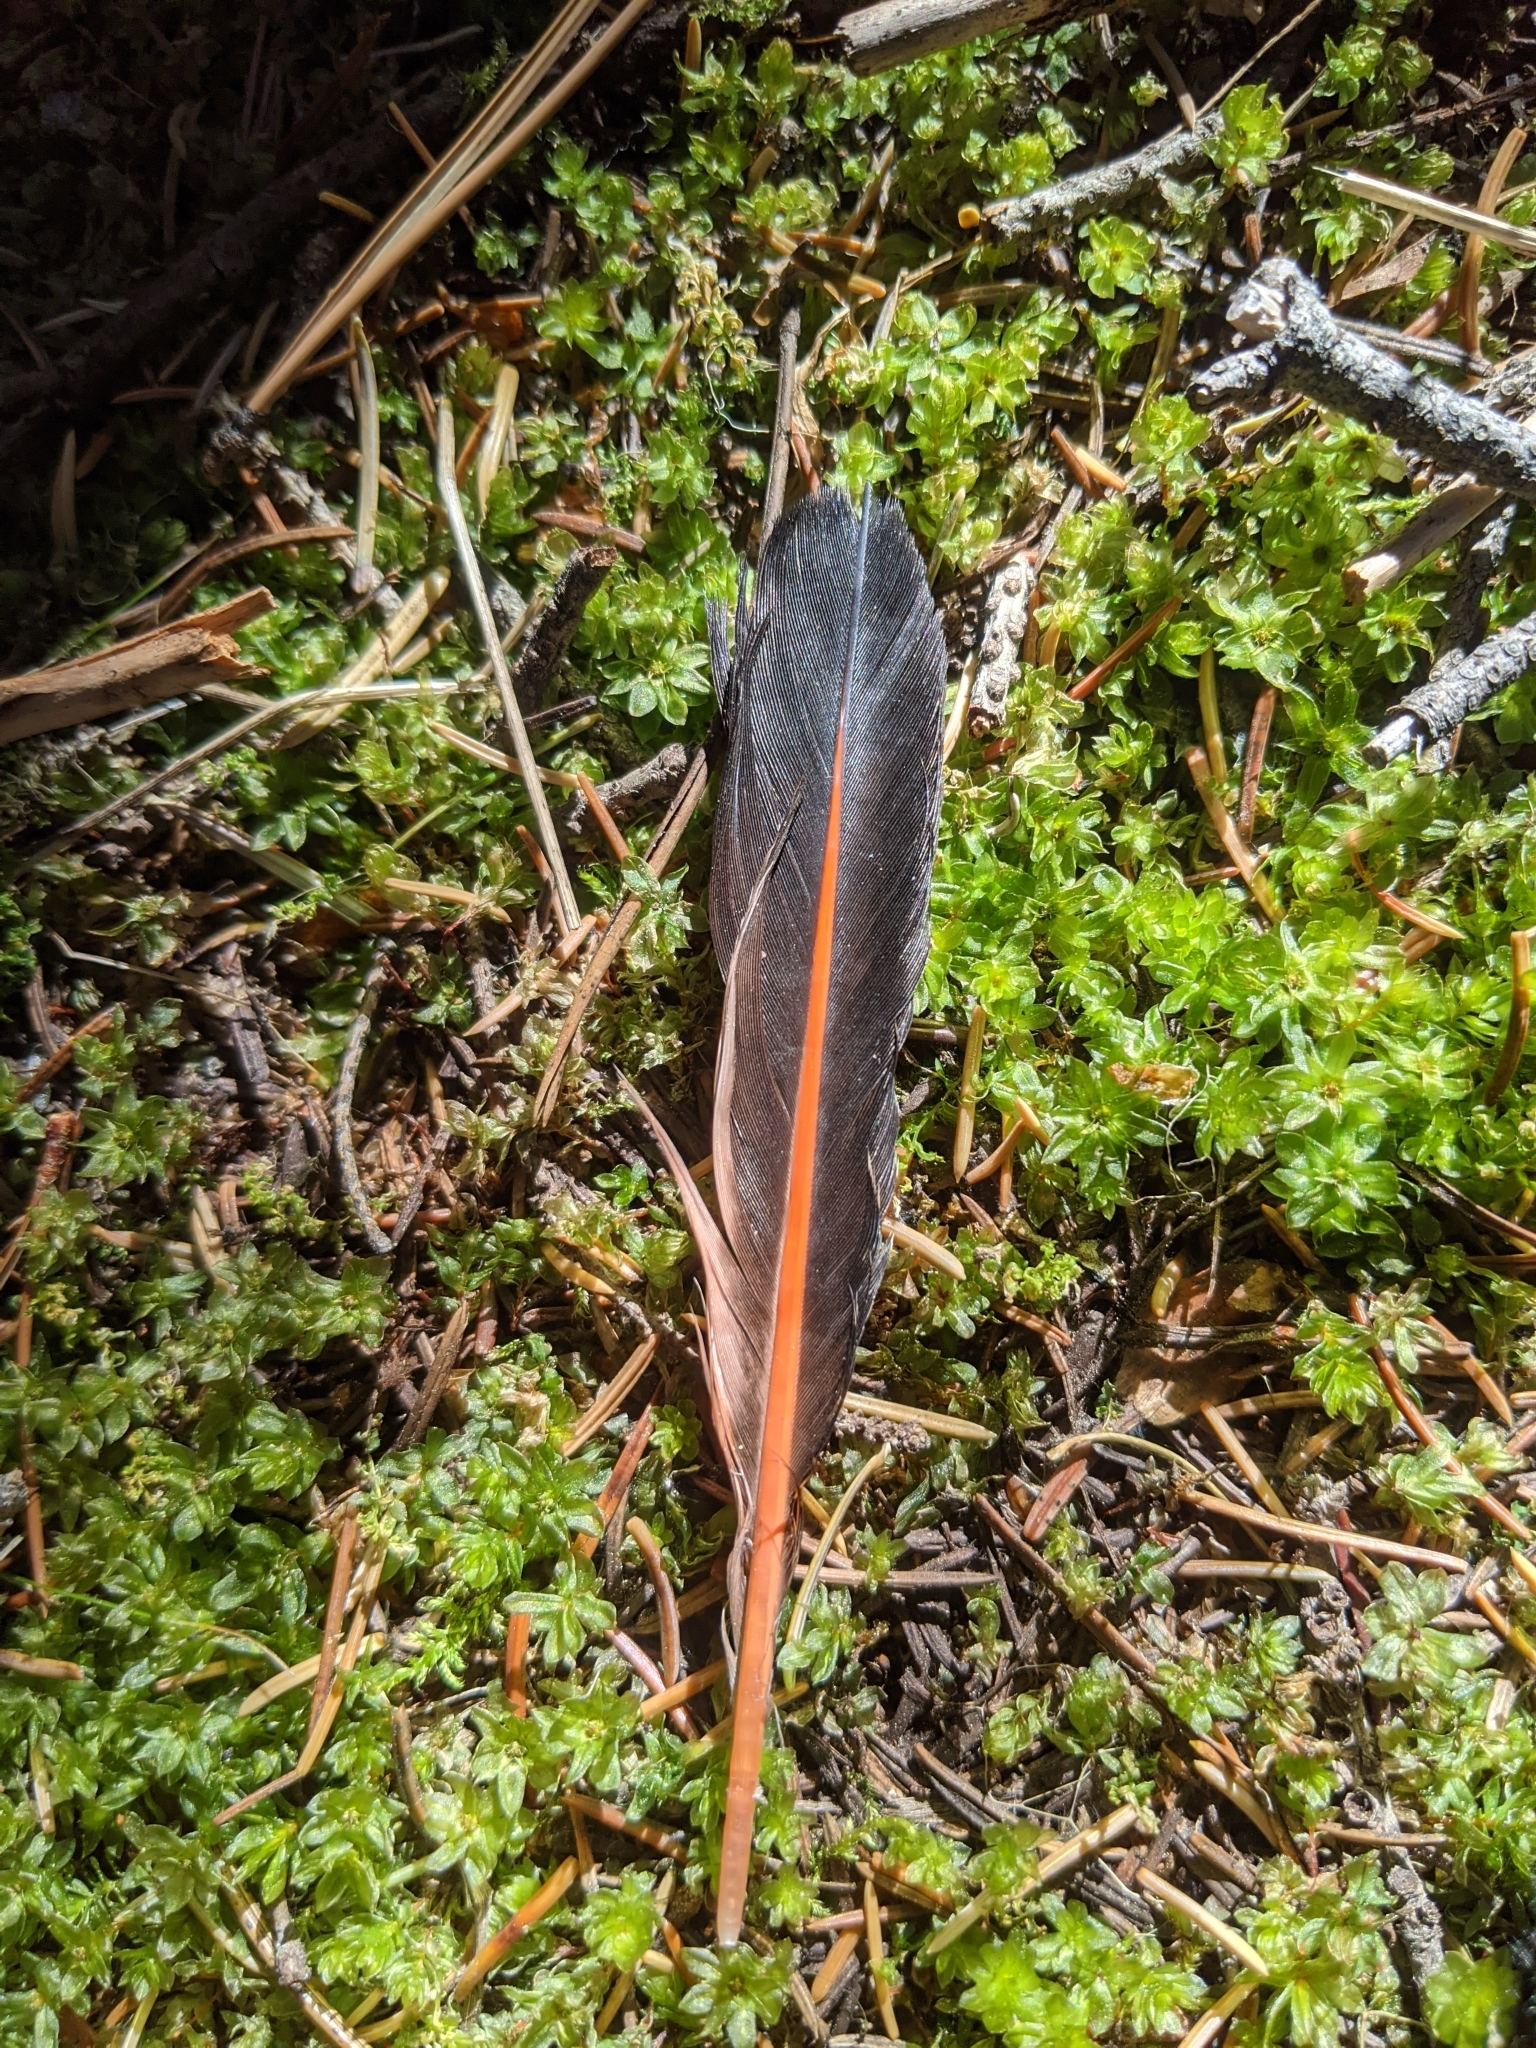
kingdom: Animalia
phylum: Chordata
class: Aves
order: Piciformes
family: Picidae
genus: Colaptes
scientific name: Colaptes auratus
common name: Northern flicker
